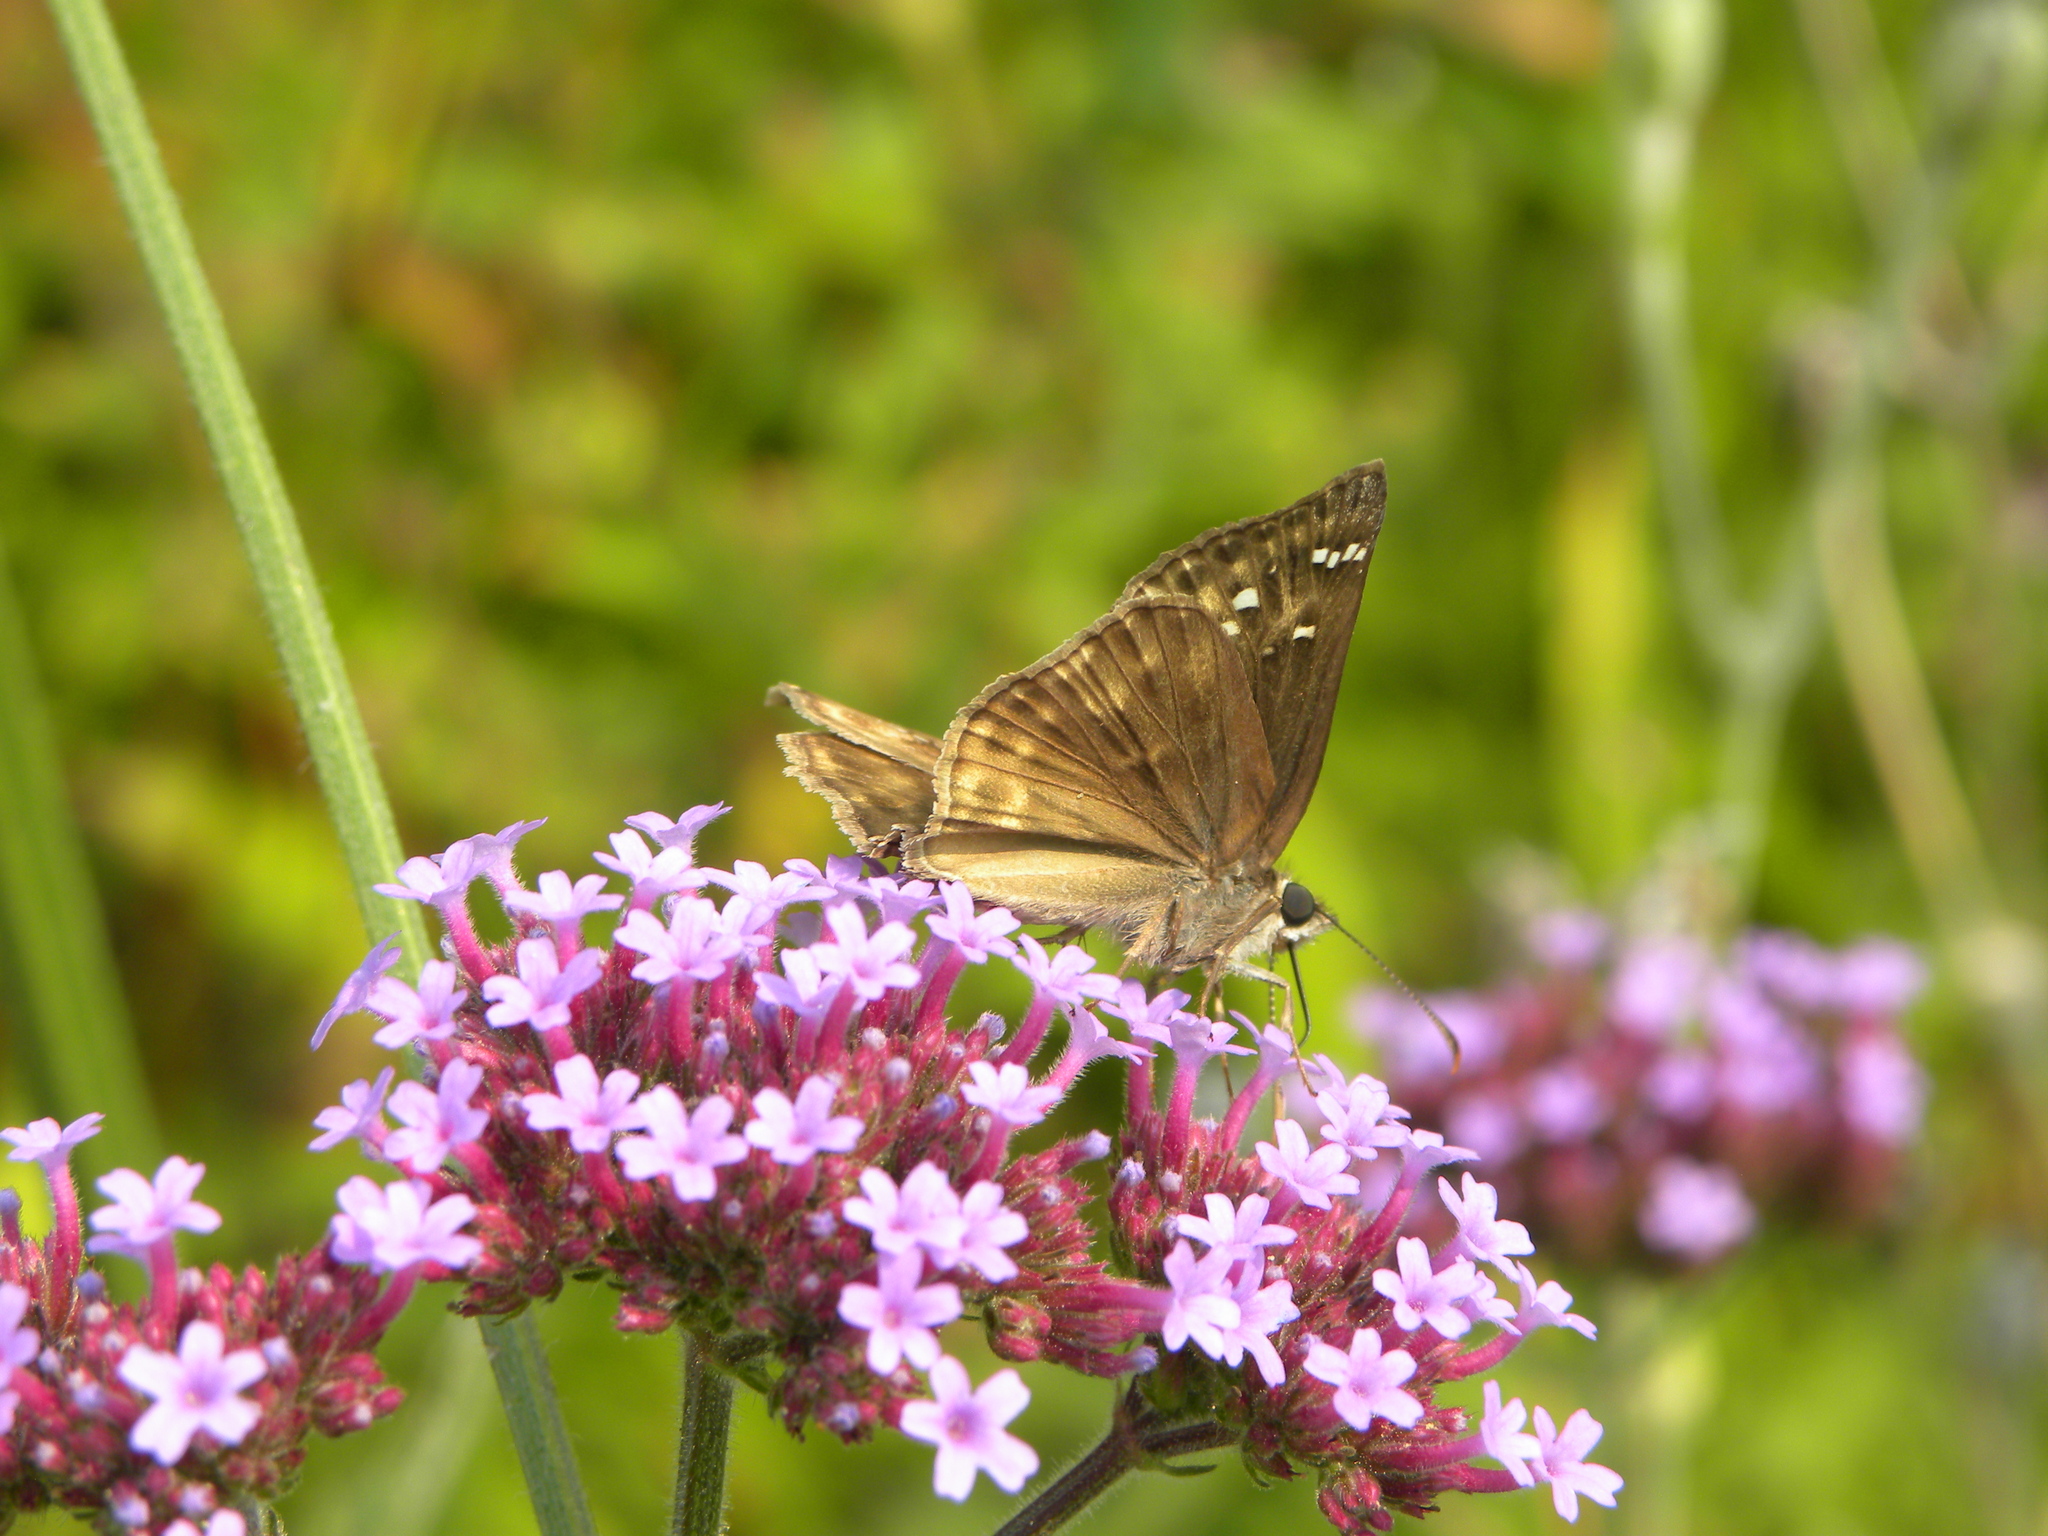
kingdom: Animalia
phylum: Arthropoda
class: Insecta
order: Lepidoptera
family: Hesperiidae
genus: Erynnis
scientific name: Erynnis horatius
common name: Horace's duskywing
